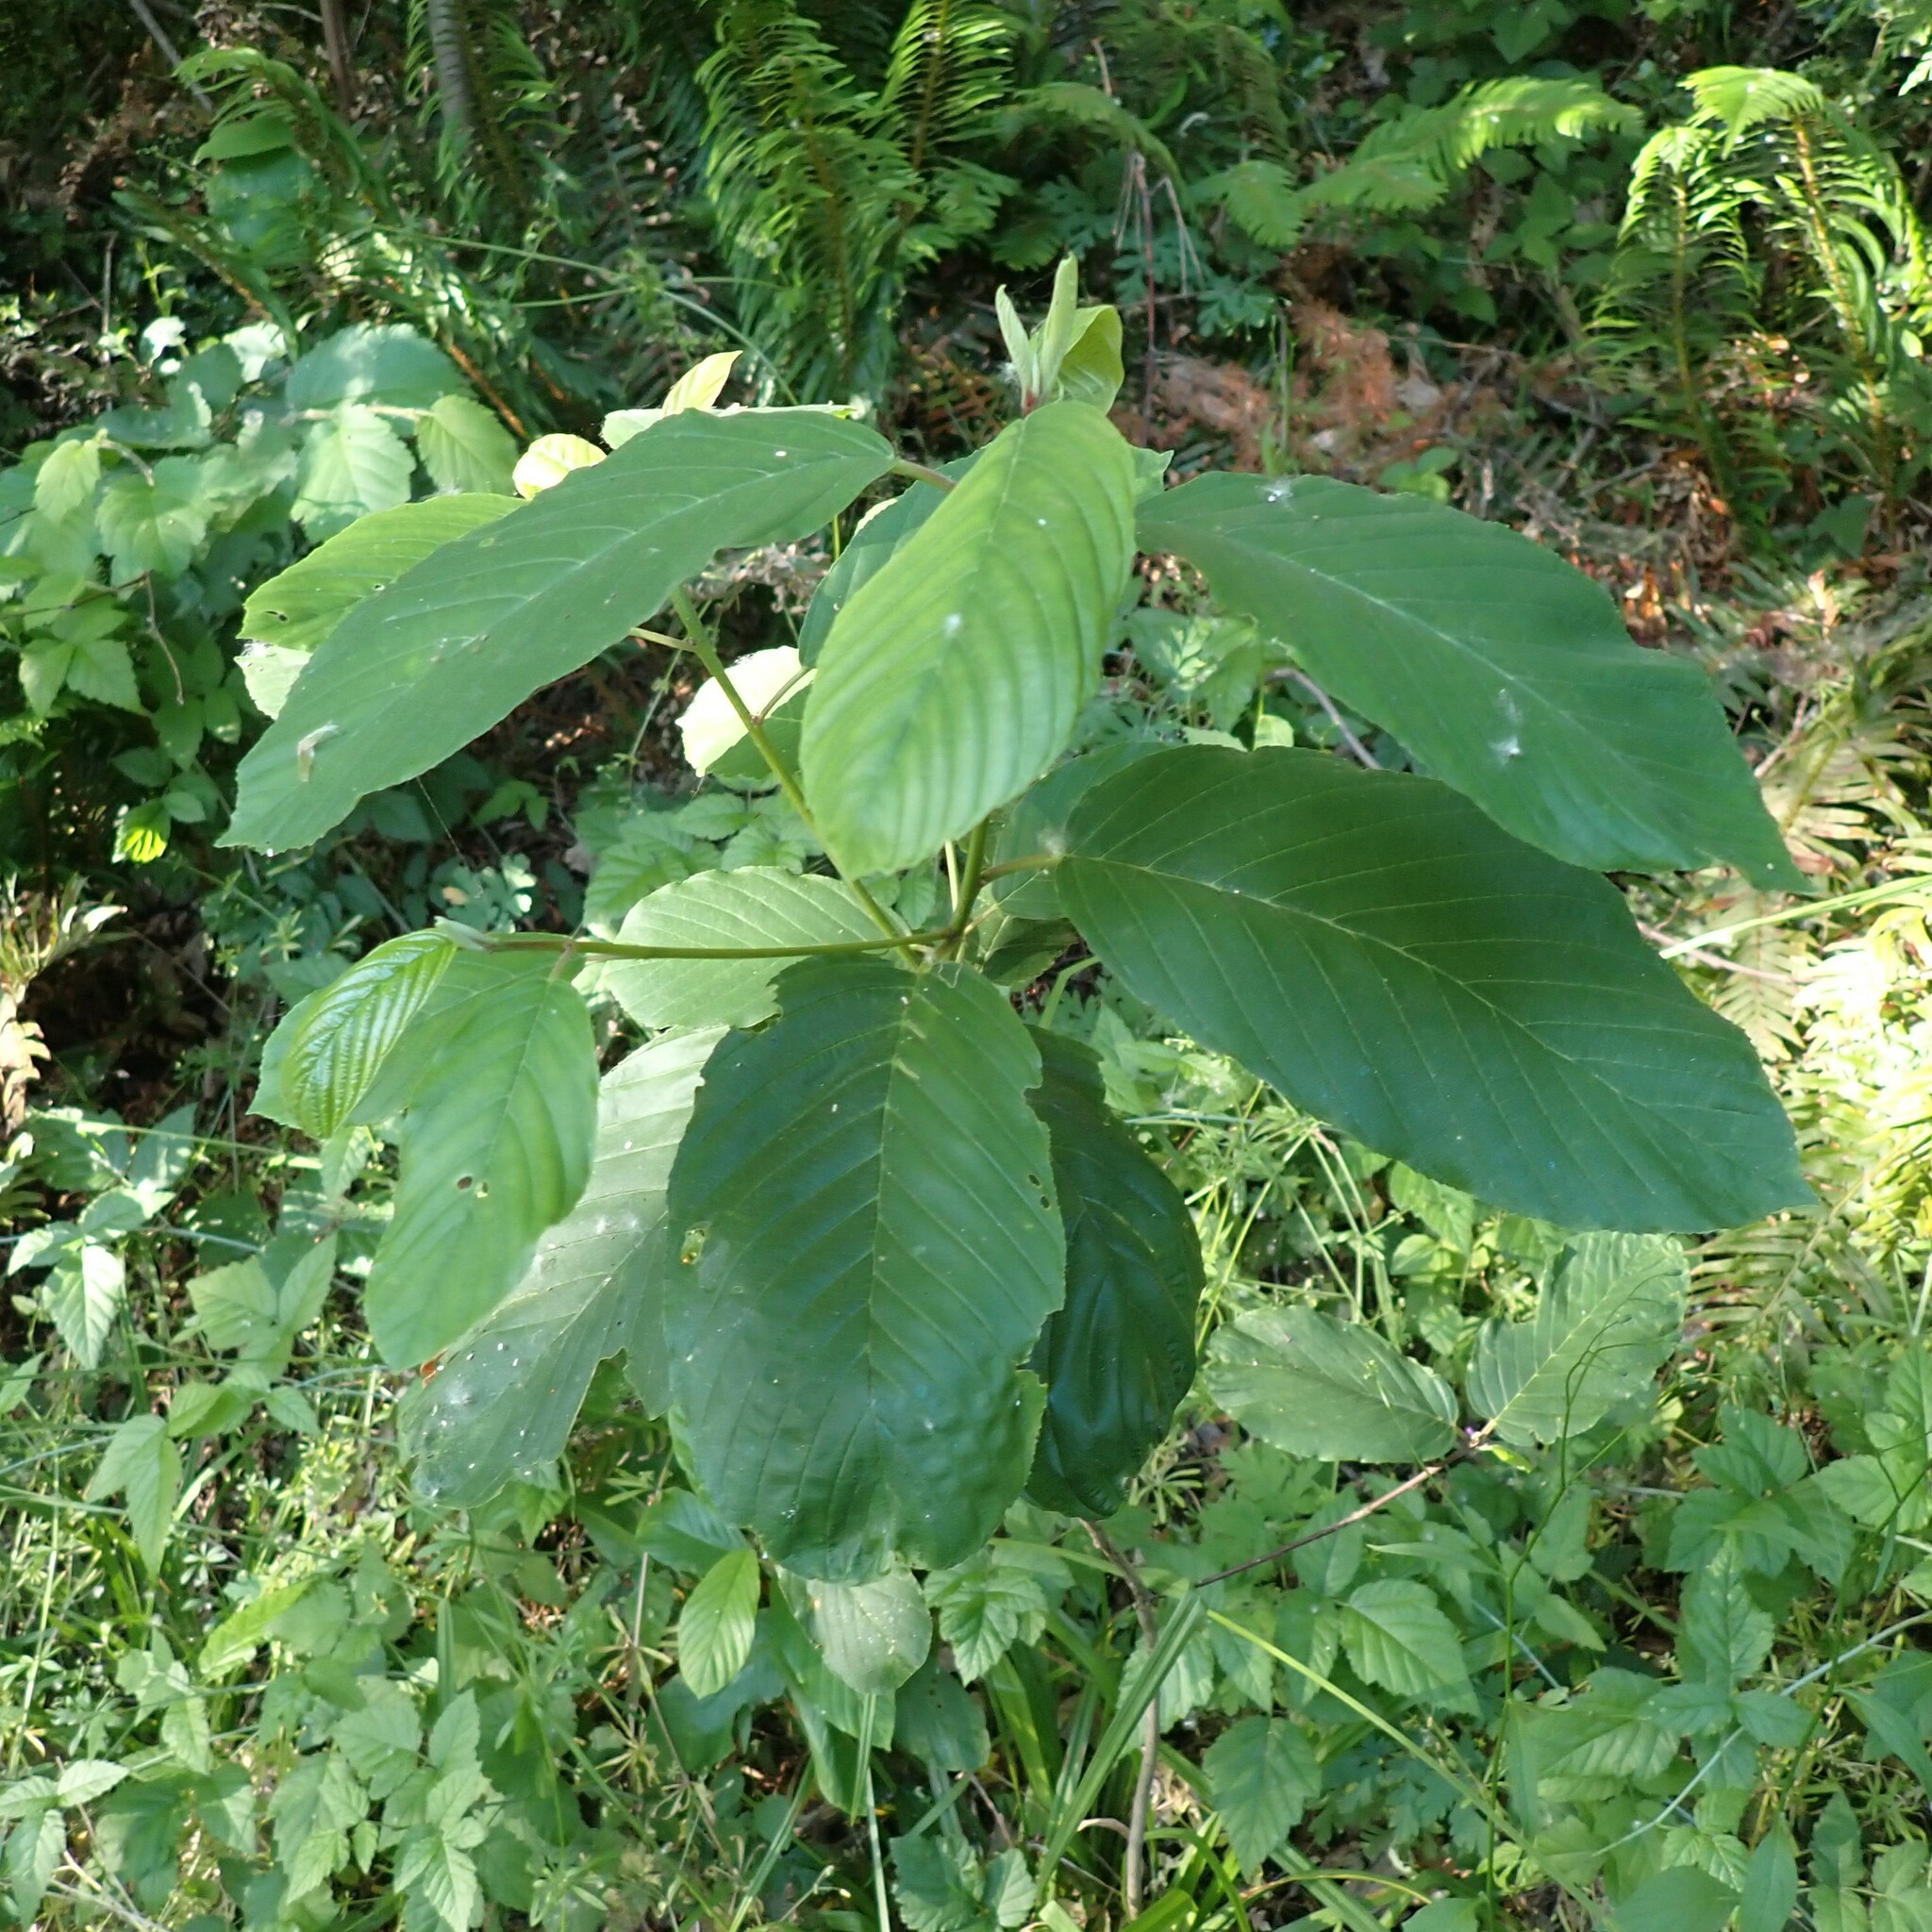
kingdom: Plantae
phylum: Tracheophyta
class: Magnoliopsida
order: Rosales
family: Rhamnaceae
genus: Frangula
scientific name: Frangula purshiana
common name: Cascara buckthorn
